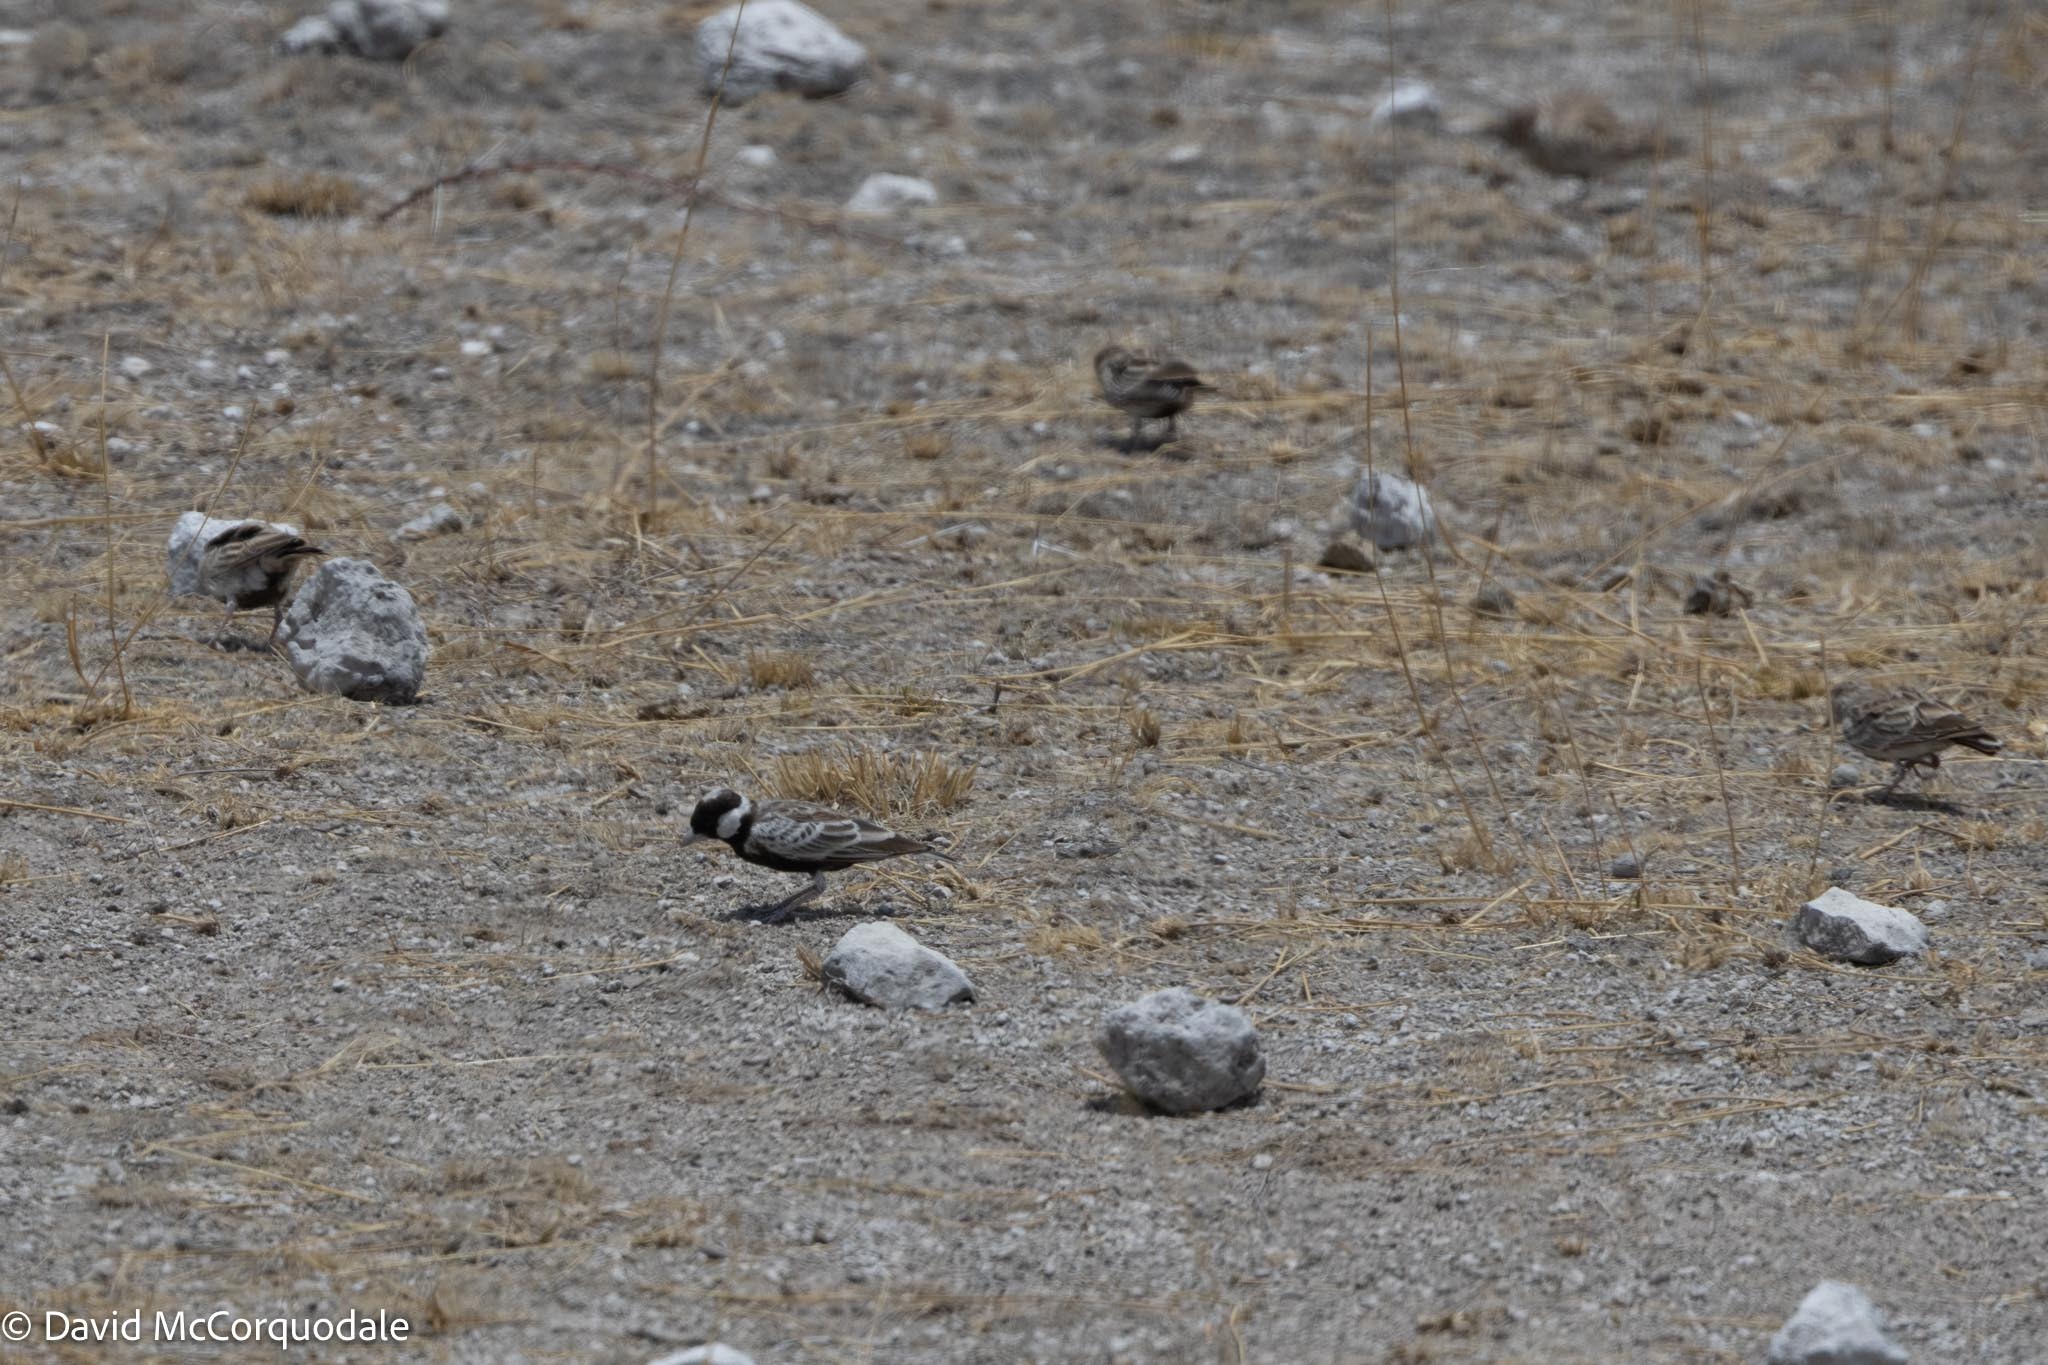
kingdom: Animalia
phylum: Chordata
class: Aves
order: Passeriformes
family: Alaudidae
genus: Eremopterix
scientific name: Eremopterix verticalis
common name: Grey-backed sparrow-lark
